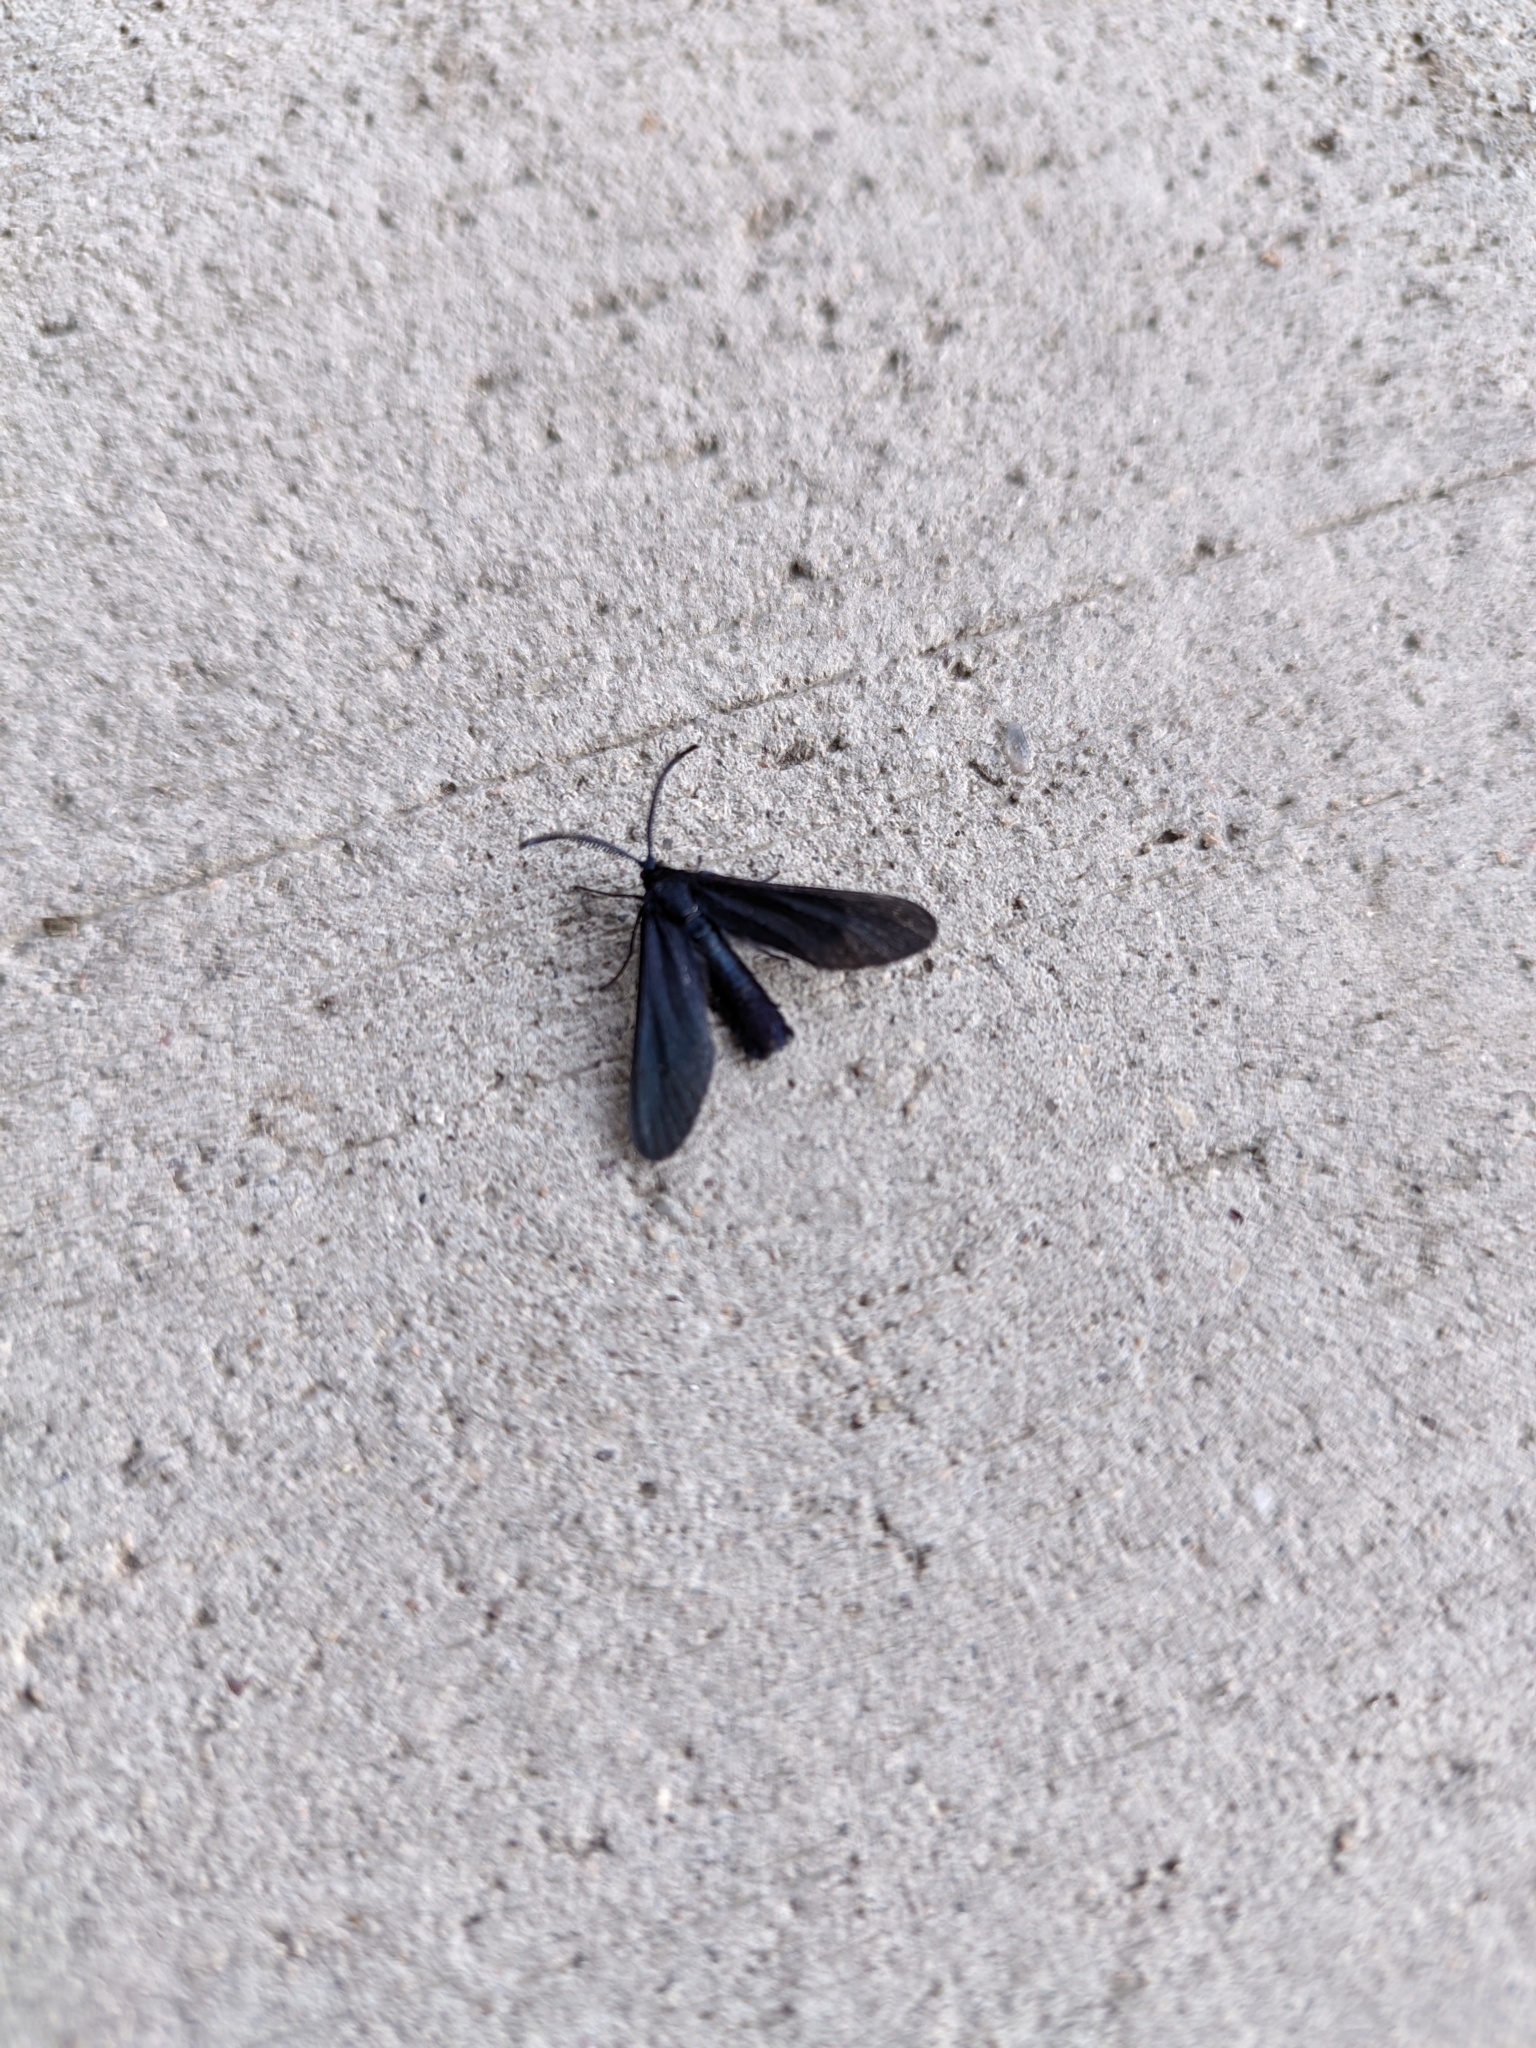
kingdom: Animalia
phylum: Arthropoda
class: Insecta
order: Lepidoptera
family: Zygaenidae
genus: Harrisina
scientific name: Harrisina metallica
